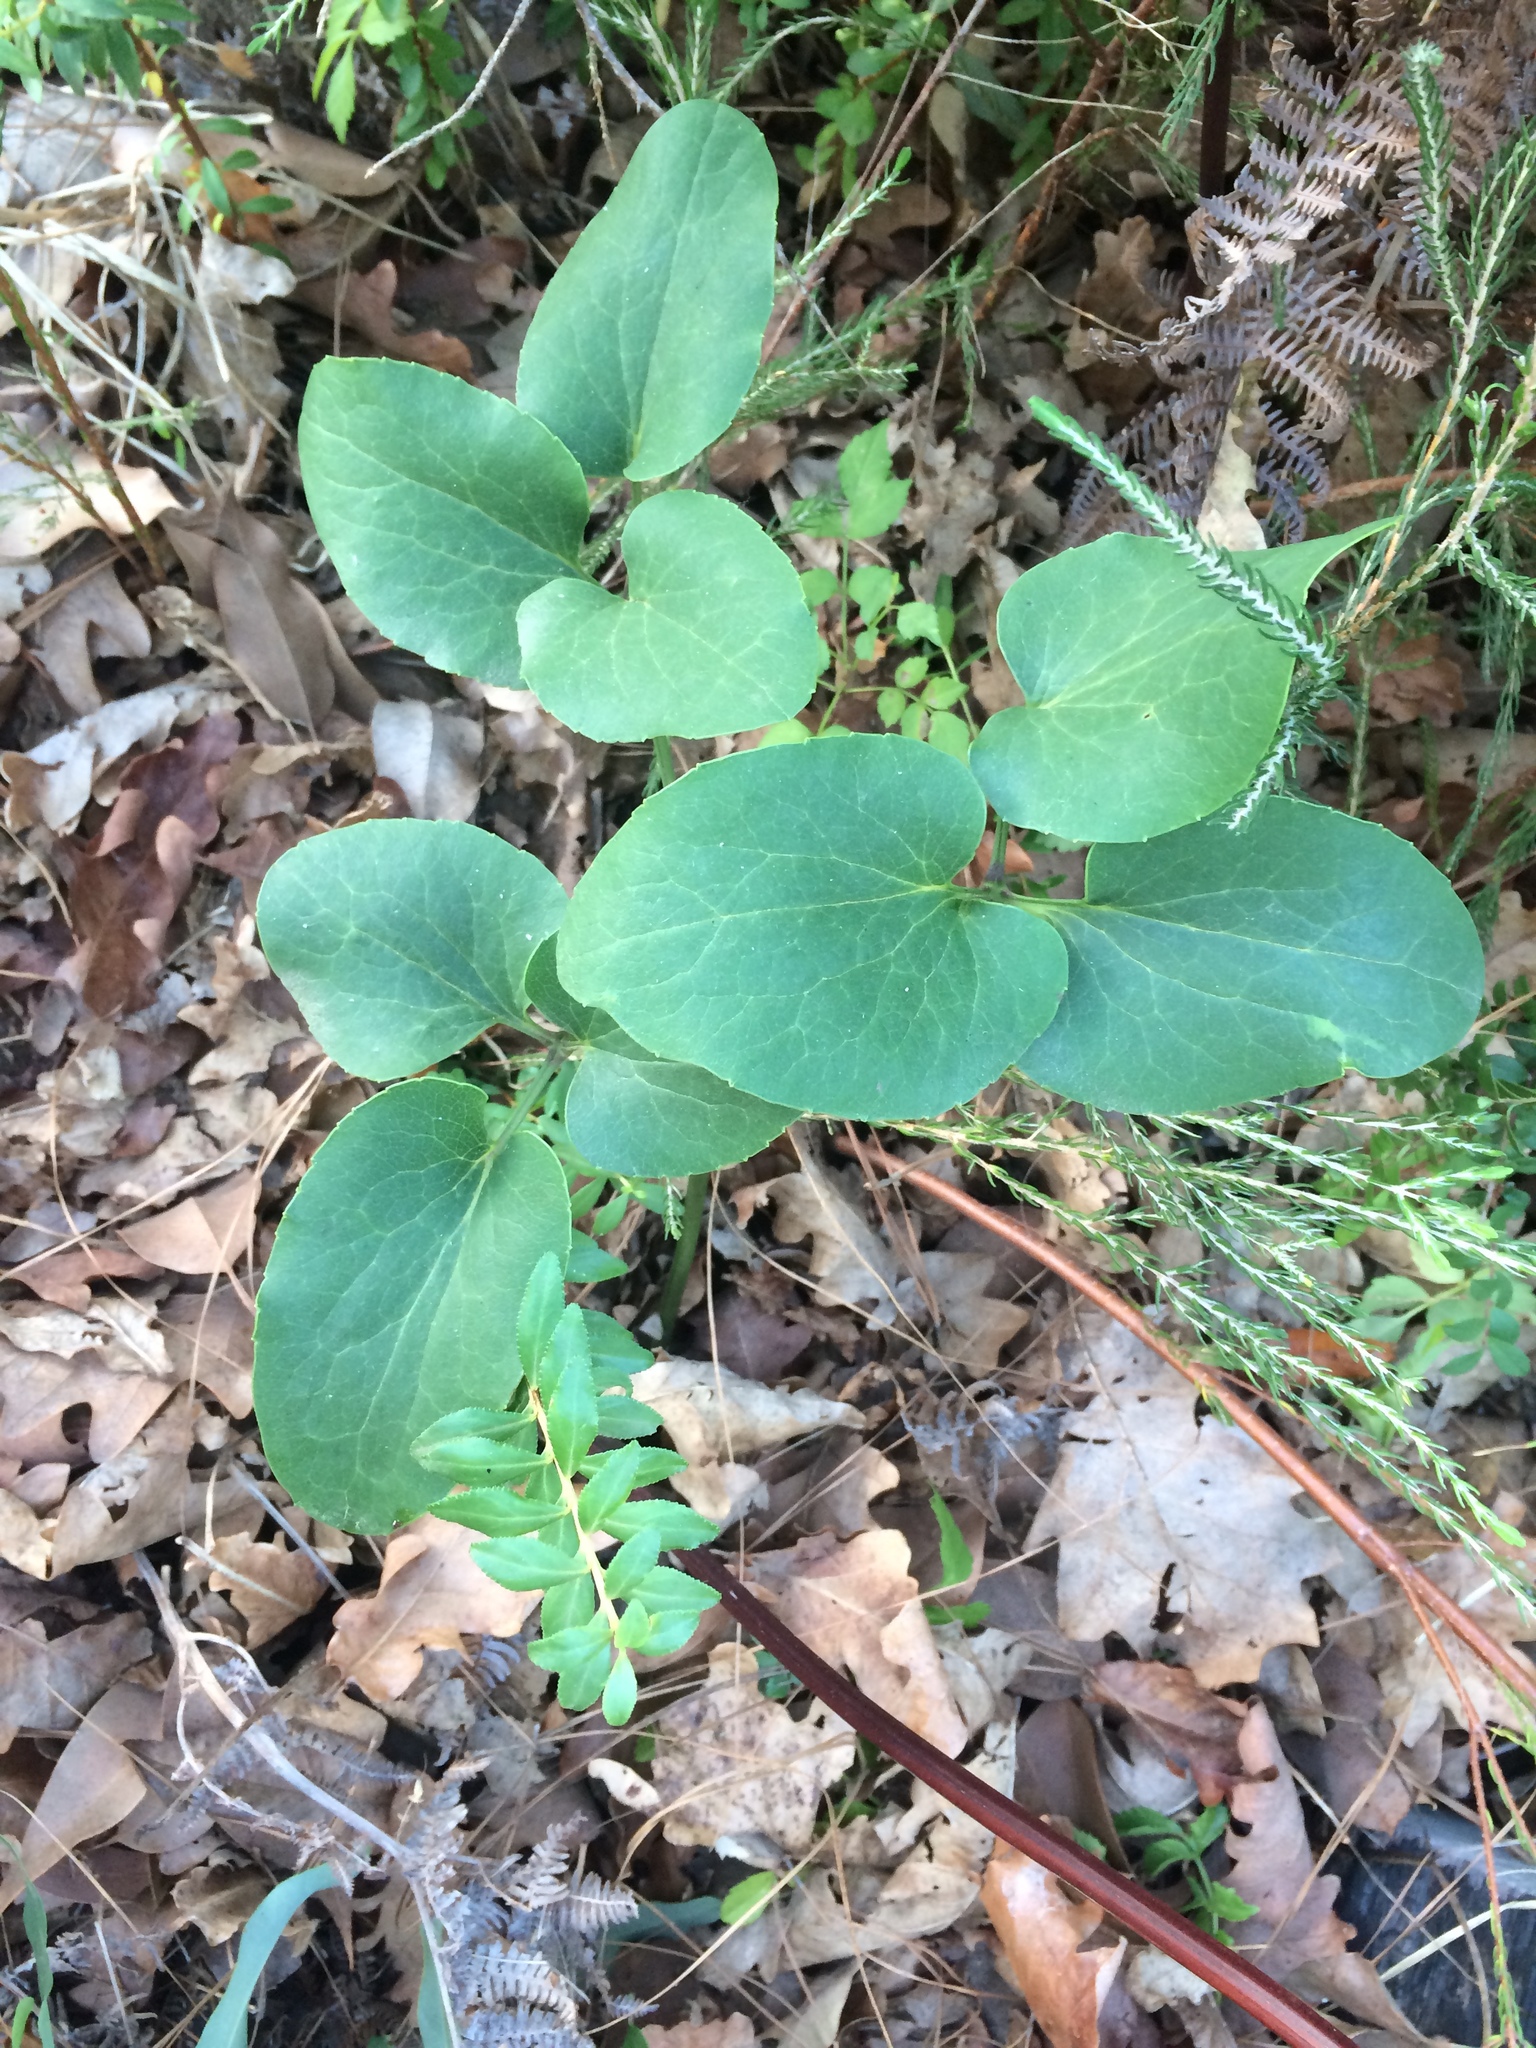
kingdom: Plantae
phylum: Tracheophyta
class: Magnoliopsida
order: Ranunculales
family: Ranunculaceae
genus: Knowltonia
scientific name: Knowltonia vesicatoria
